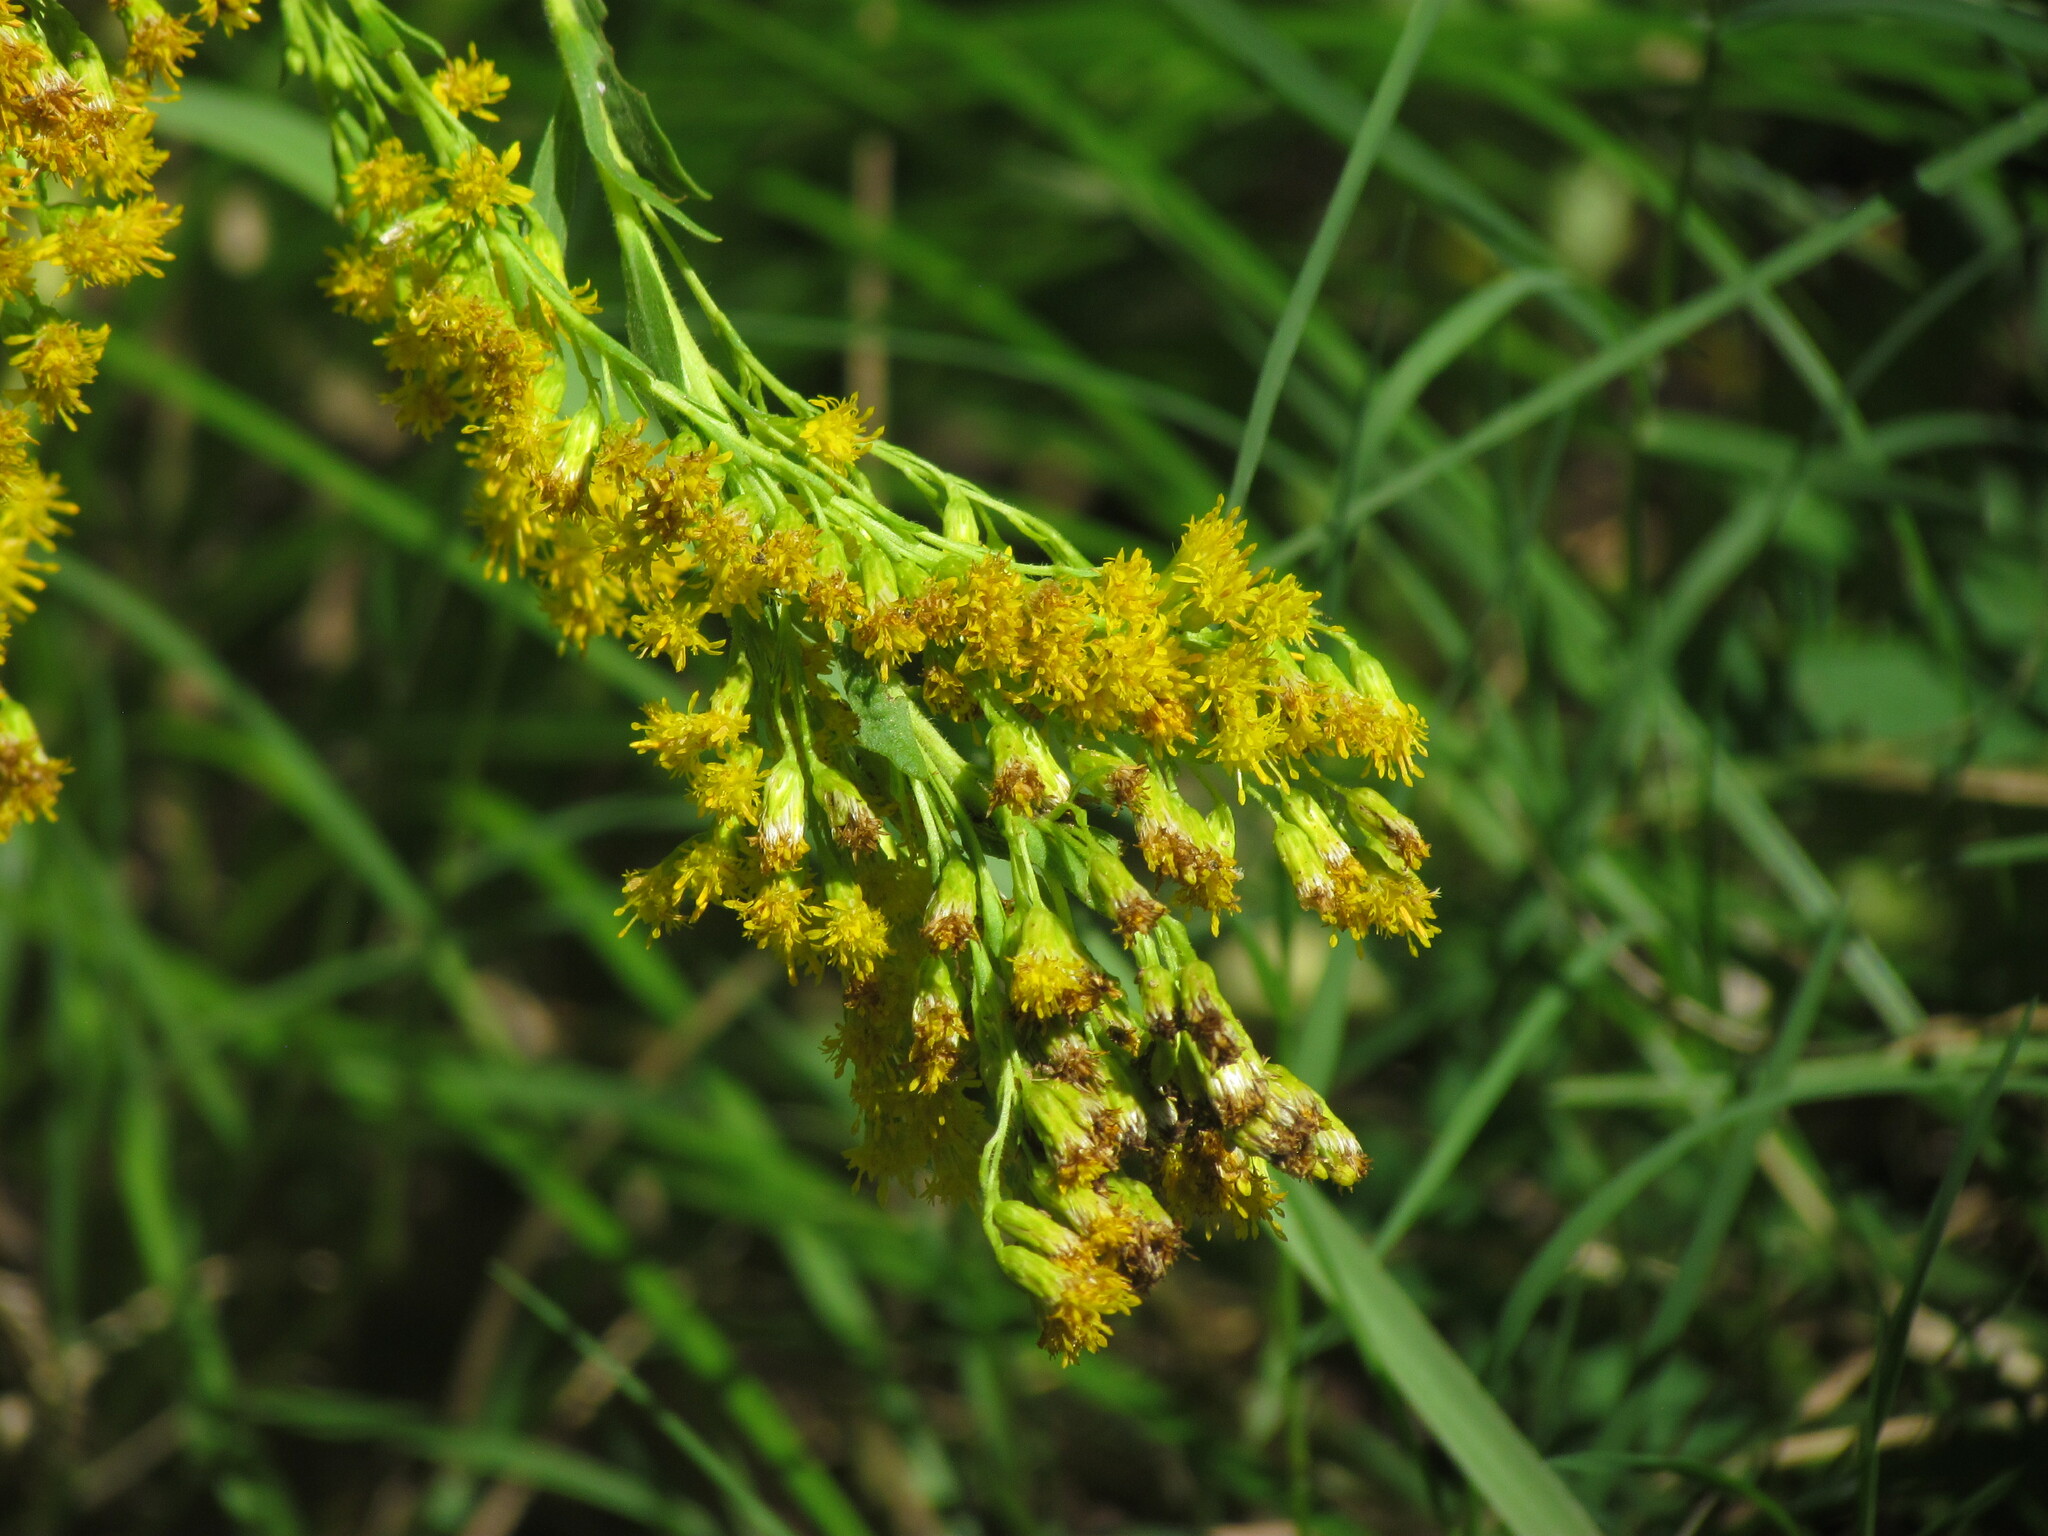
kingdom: Plantae
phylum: Tracheophyta
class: Magnoliopsida
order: Asterales
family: Asteraceae
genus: Solidago
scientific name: Solidago chilensis
